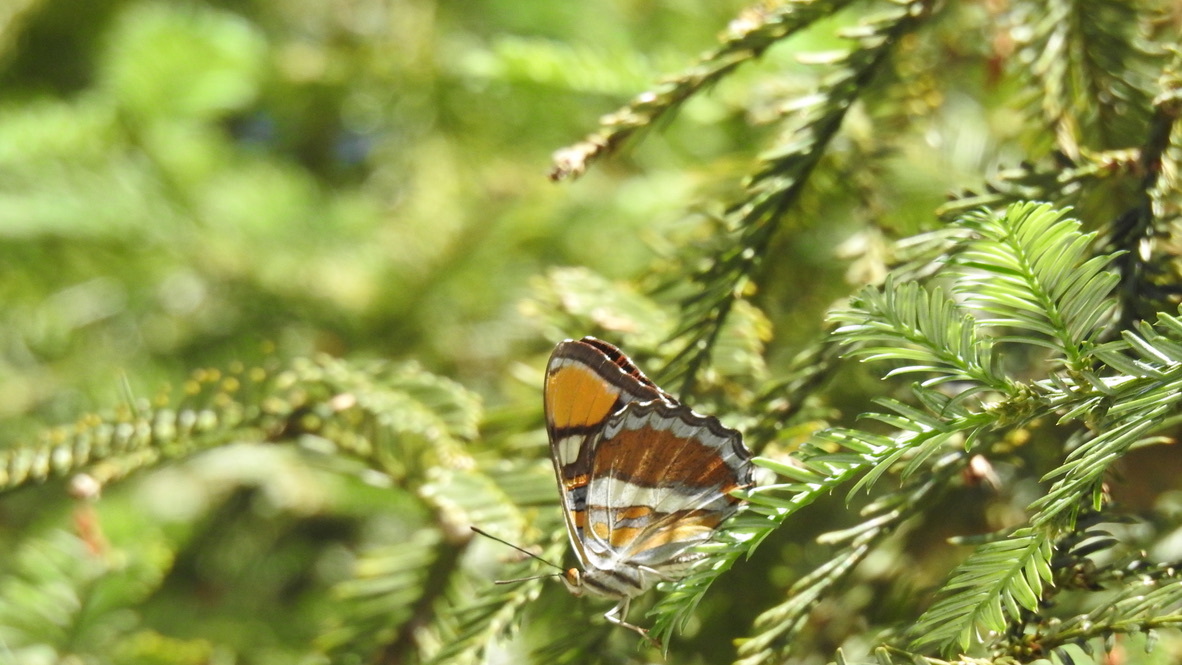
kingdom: Animalia
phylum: Arthropoda
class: Insecta
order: Lepidoptera
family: Nymphalidae
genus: Limenitis
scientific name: Limenitis bredowii
